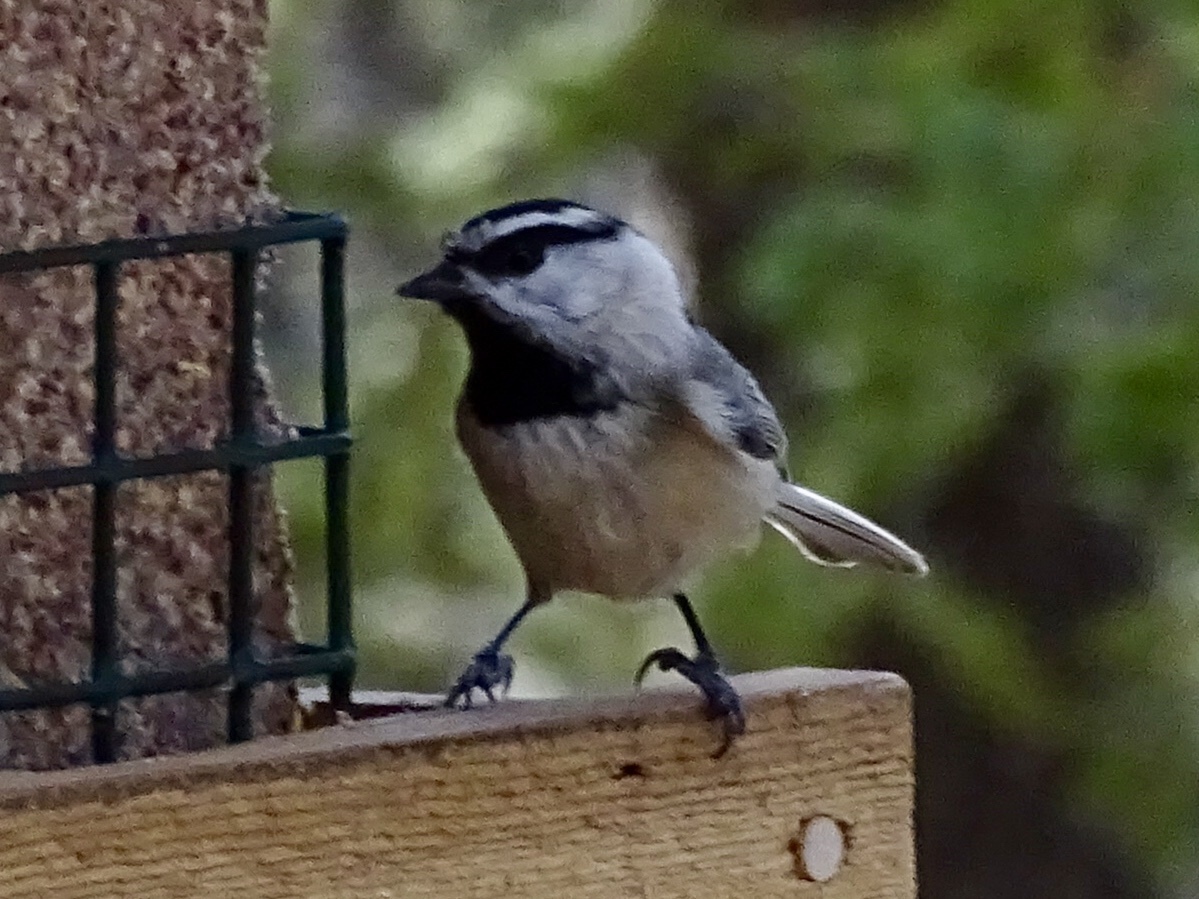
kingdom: Animalia
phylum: Chordata
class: Aves
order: Passeriformes
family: Paridae
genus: Poecile
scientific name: Poecile gambeli
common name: Mountain chickadee
